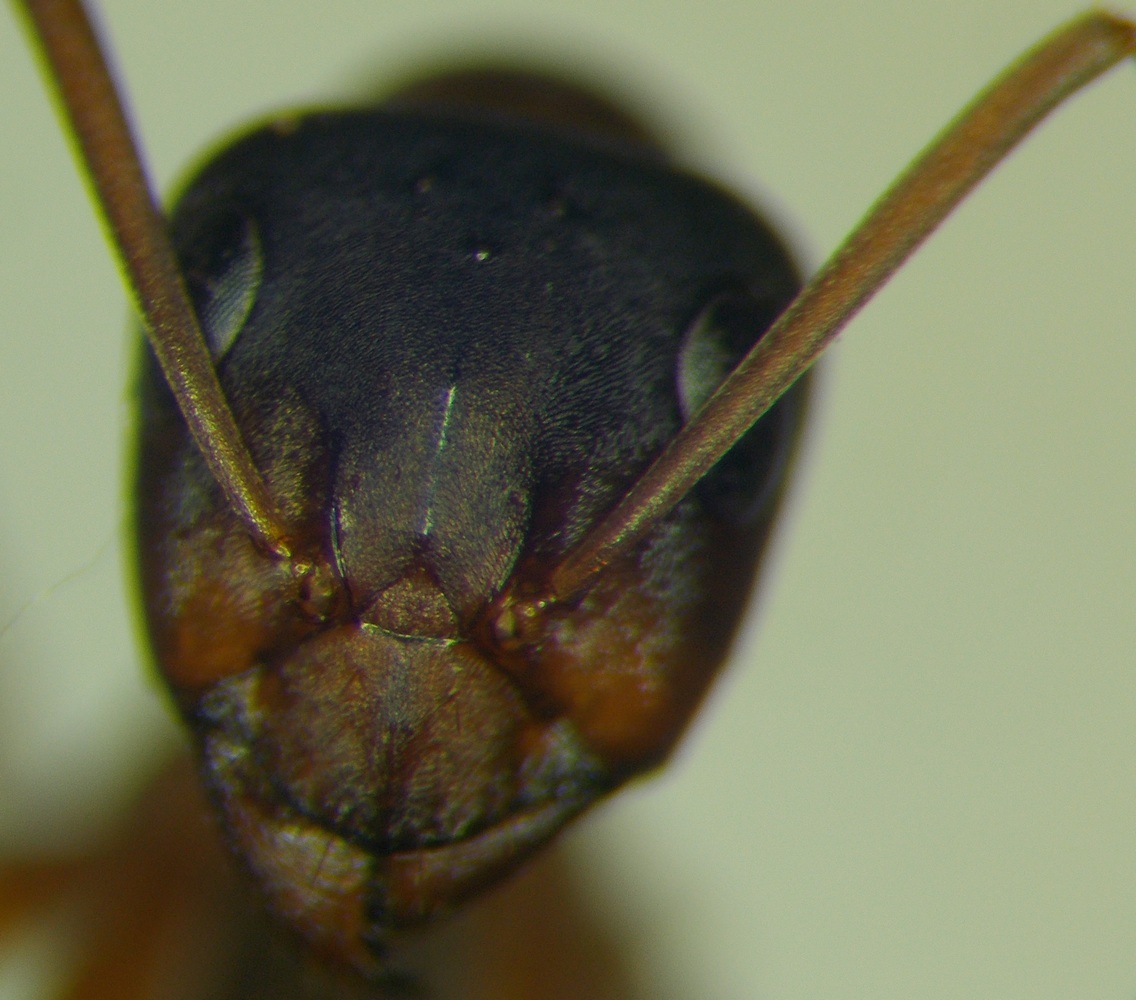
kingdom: Animalia
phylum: Arthropoda
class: Insecta
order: Hymenoptera
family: Formicidae
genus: Formica
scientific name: Formica cunicularia
